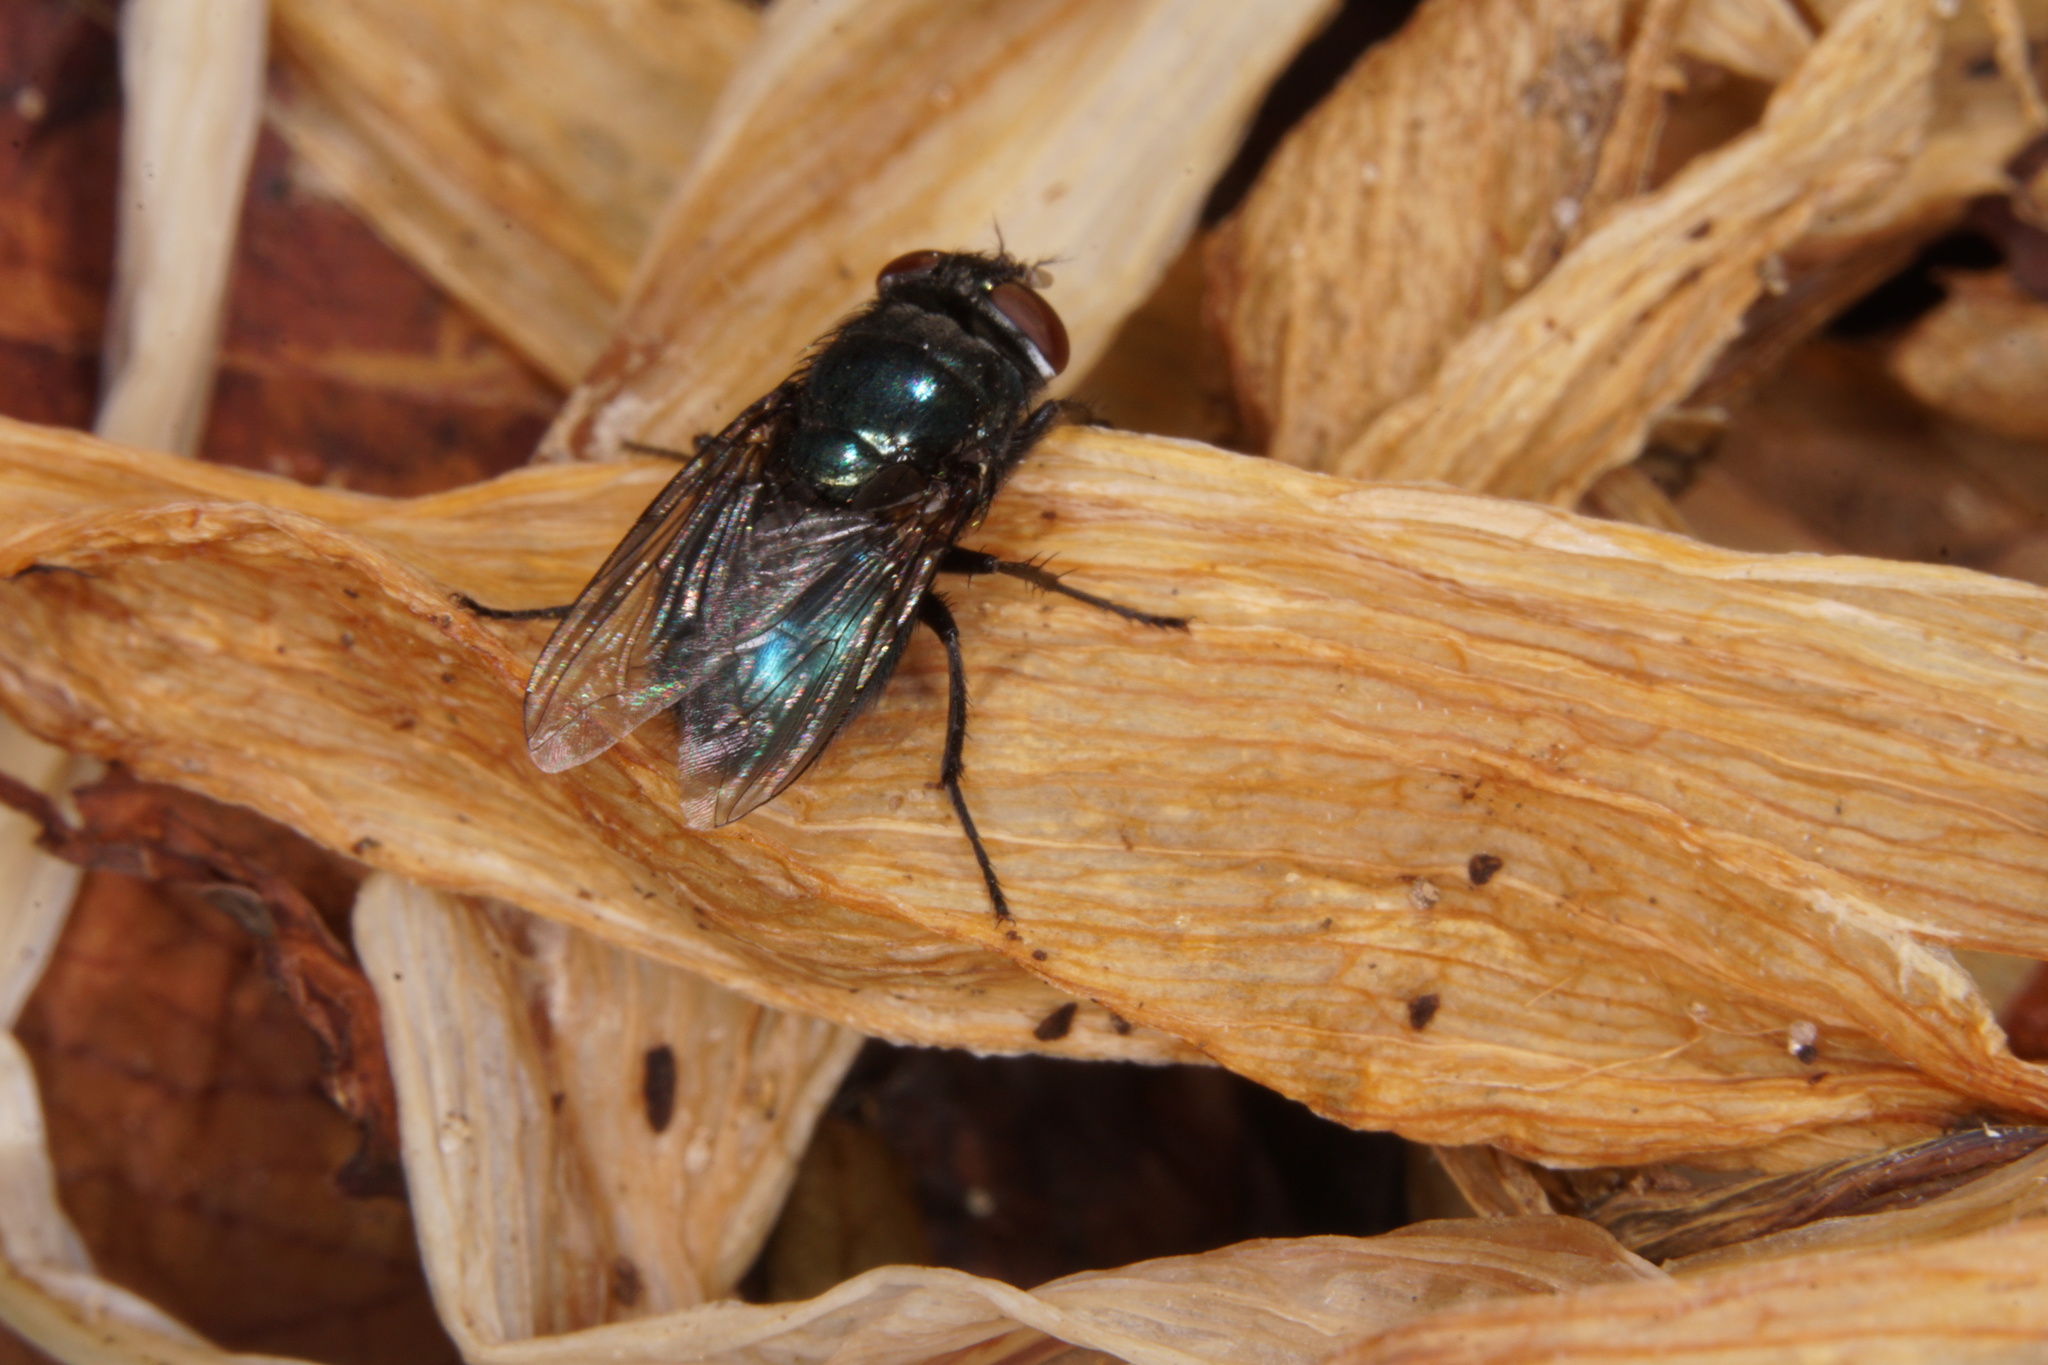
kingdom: Animalia
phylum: Arthropoda
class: Insecta
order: Diptera
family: Calliphoridae
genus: Phormia
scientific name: Phormia regina
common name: Black blow fly
